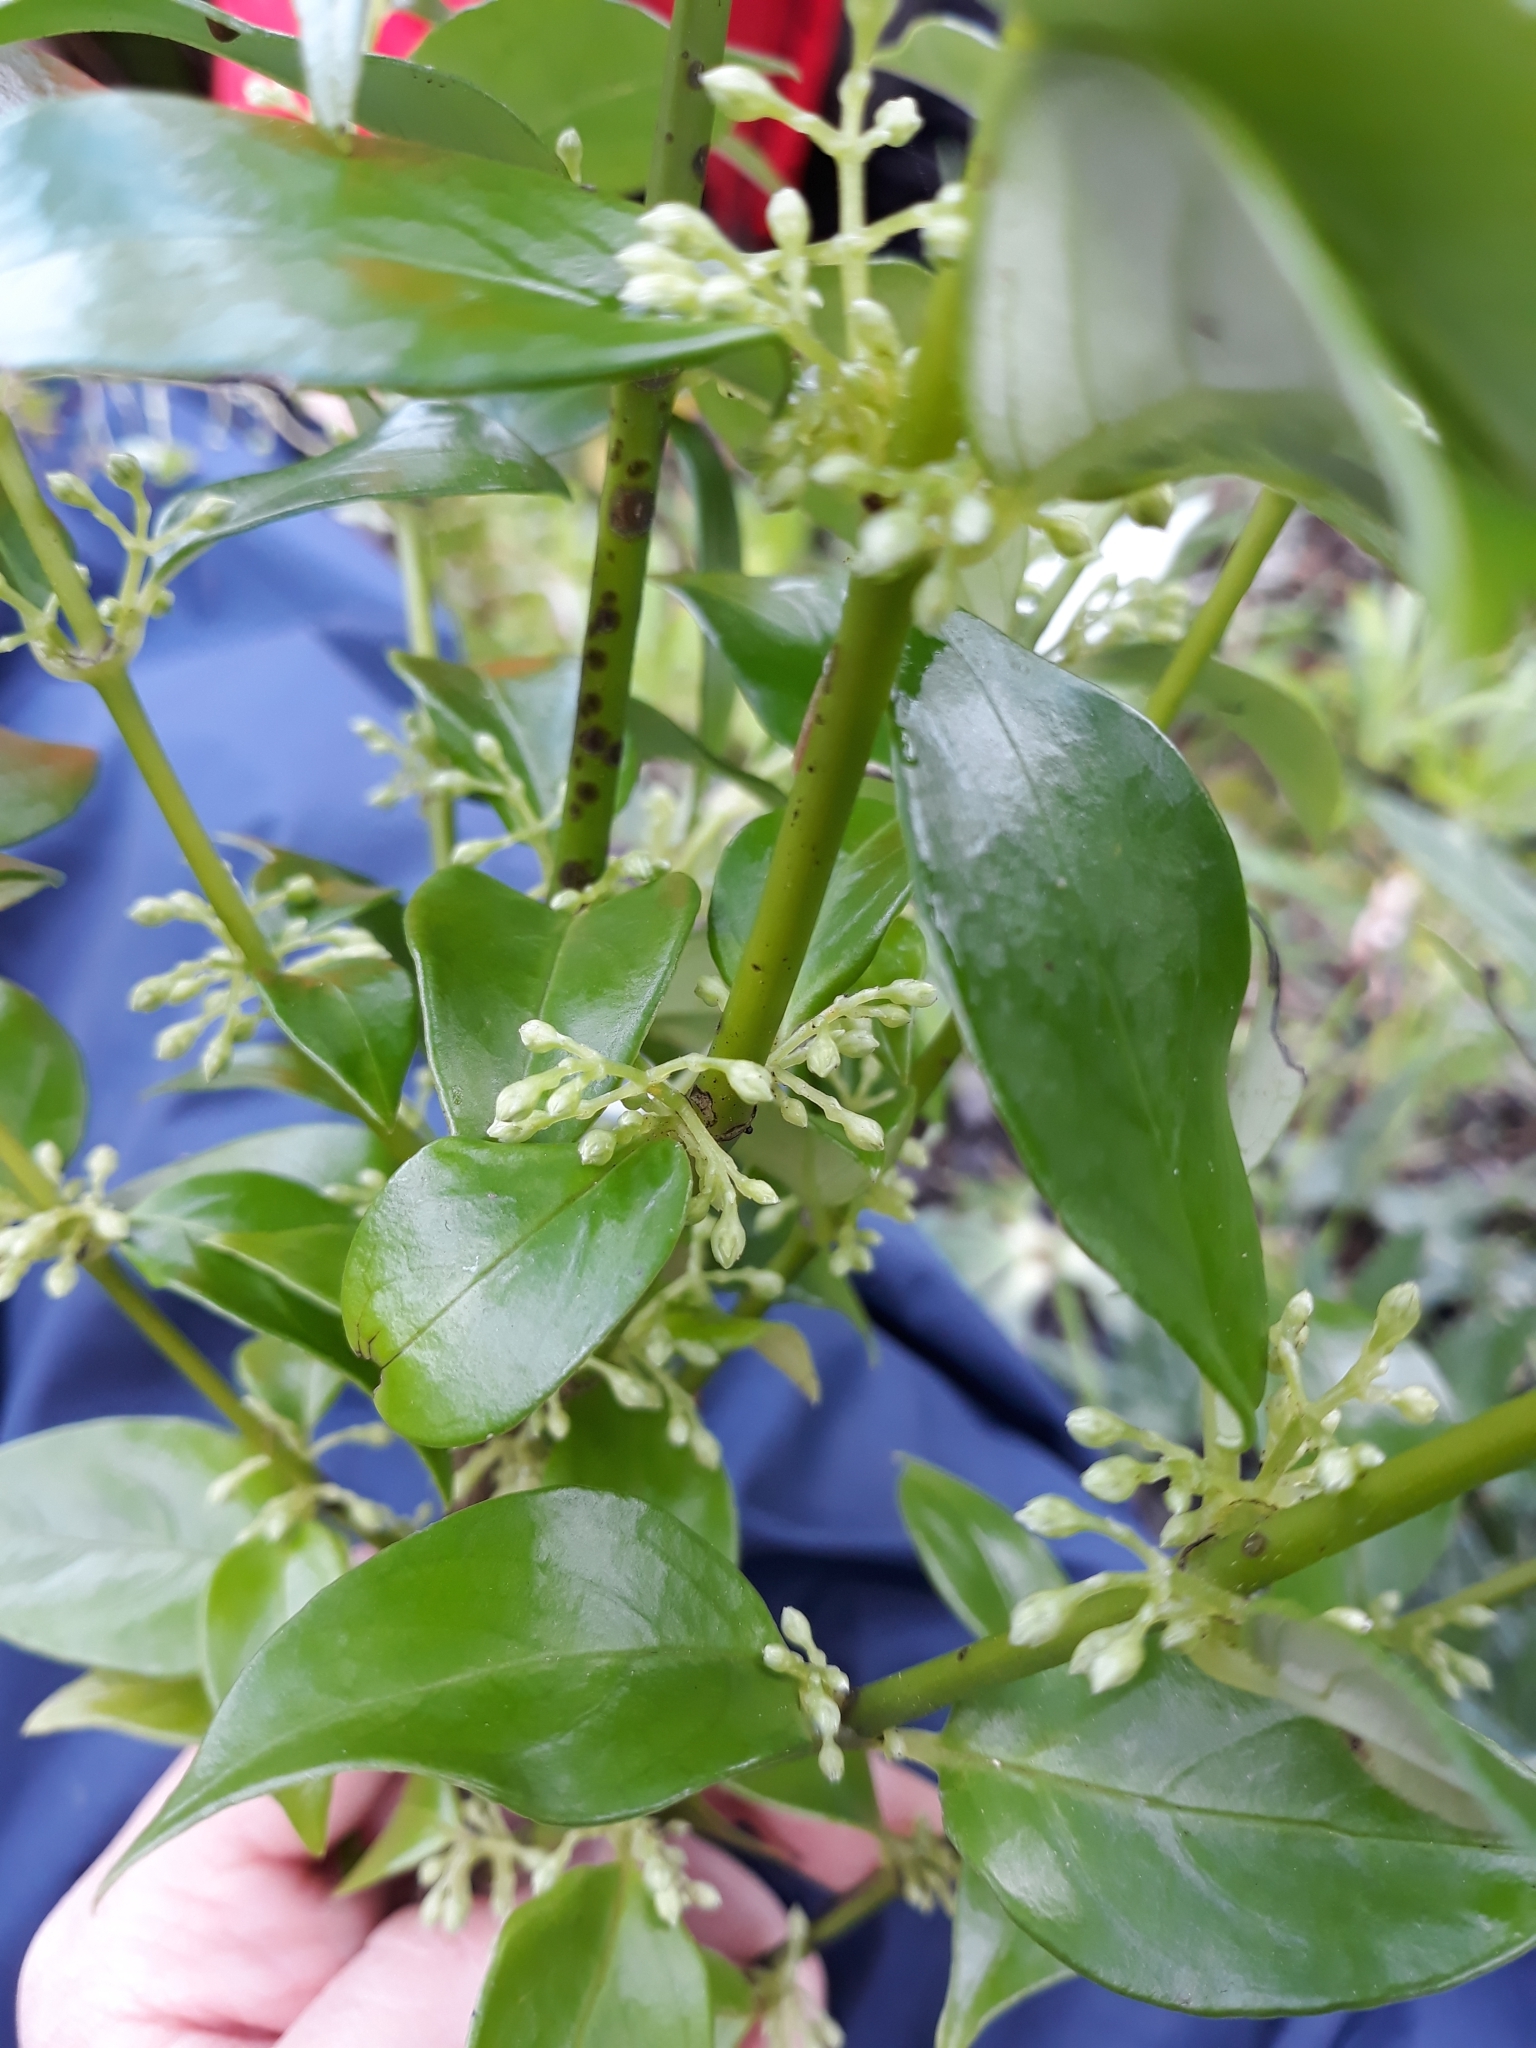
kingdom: Plantae
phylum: Tracheophyta
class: Magnoliopsida
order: Gentianales
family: Loganiaceae
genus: Geniostoma
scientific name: Geniostoma ligustrifolium
